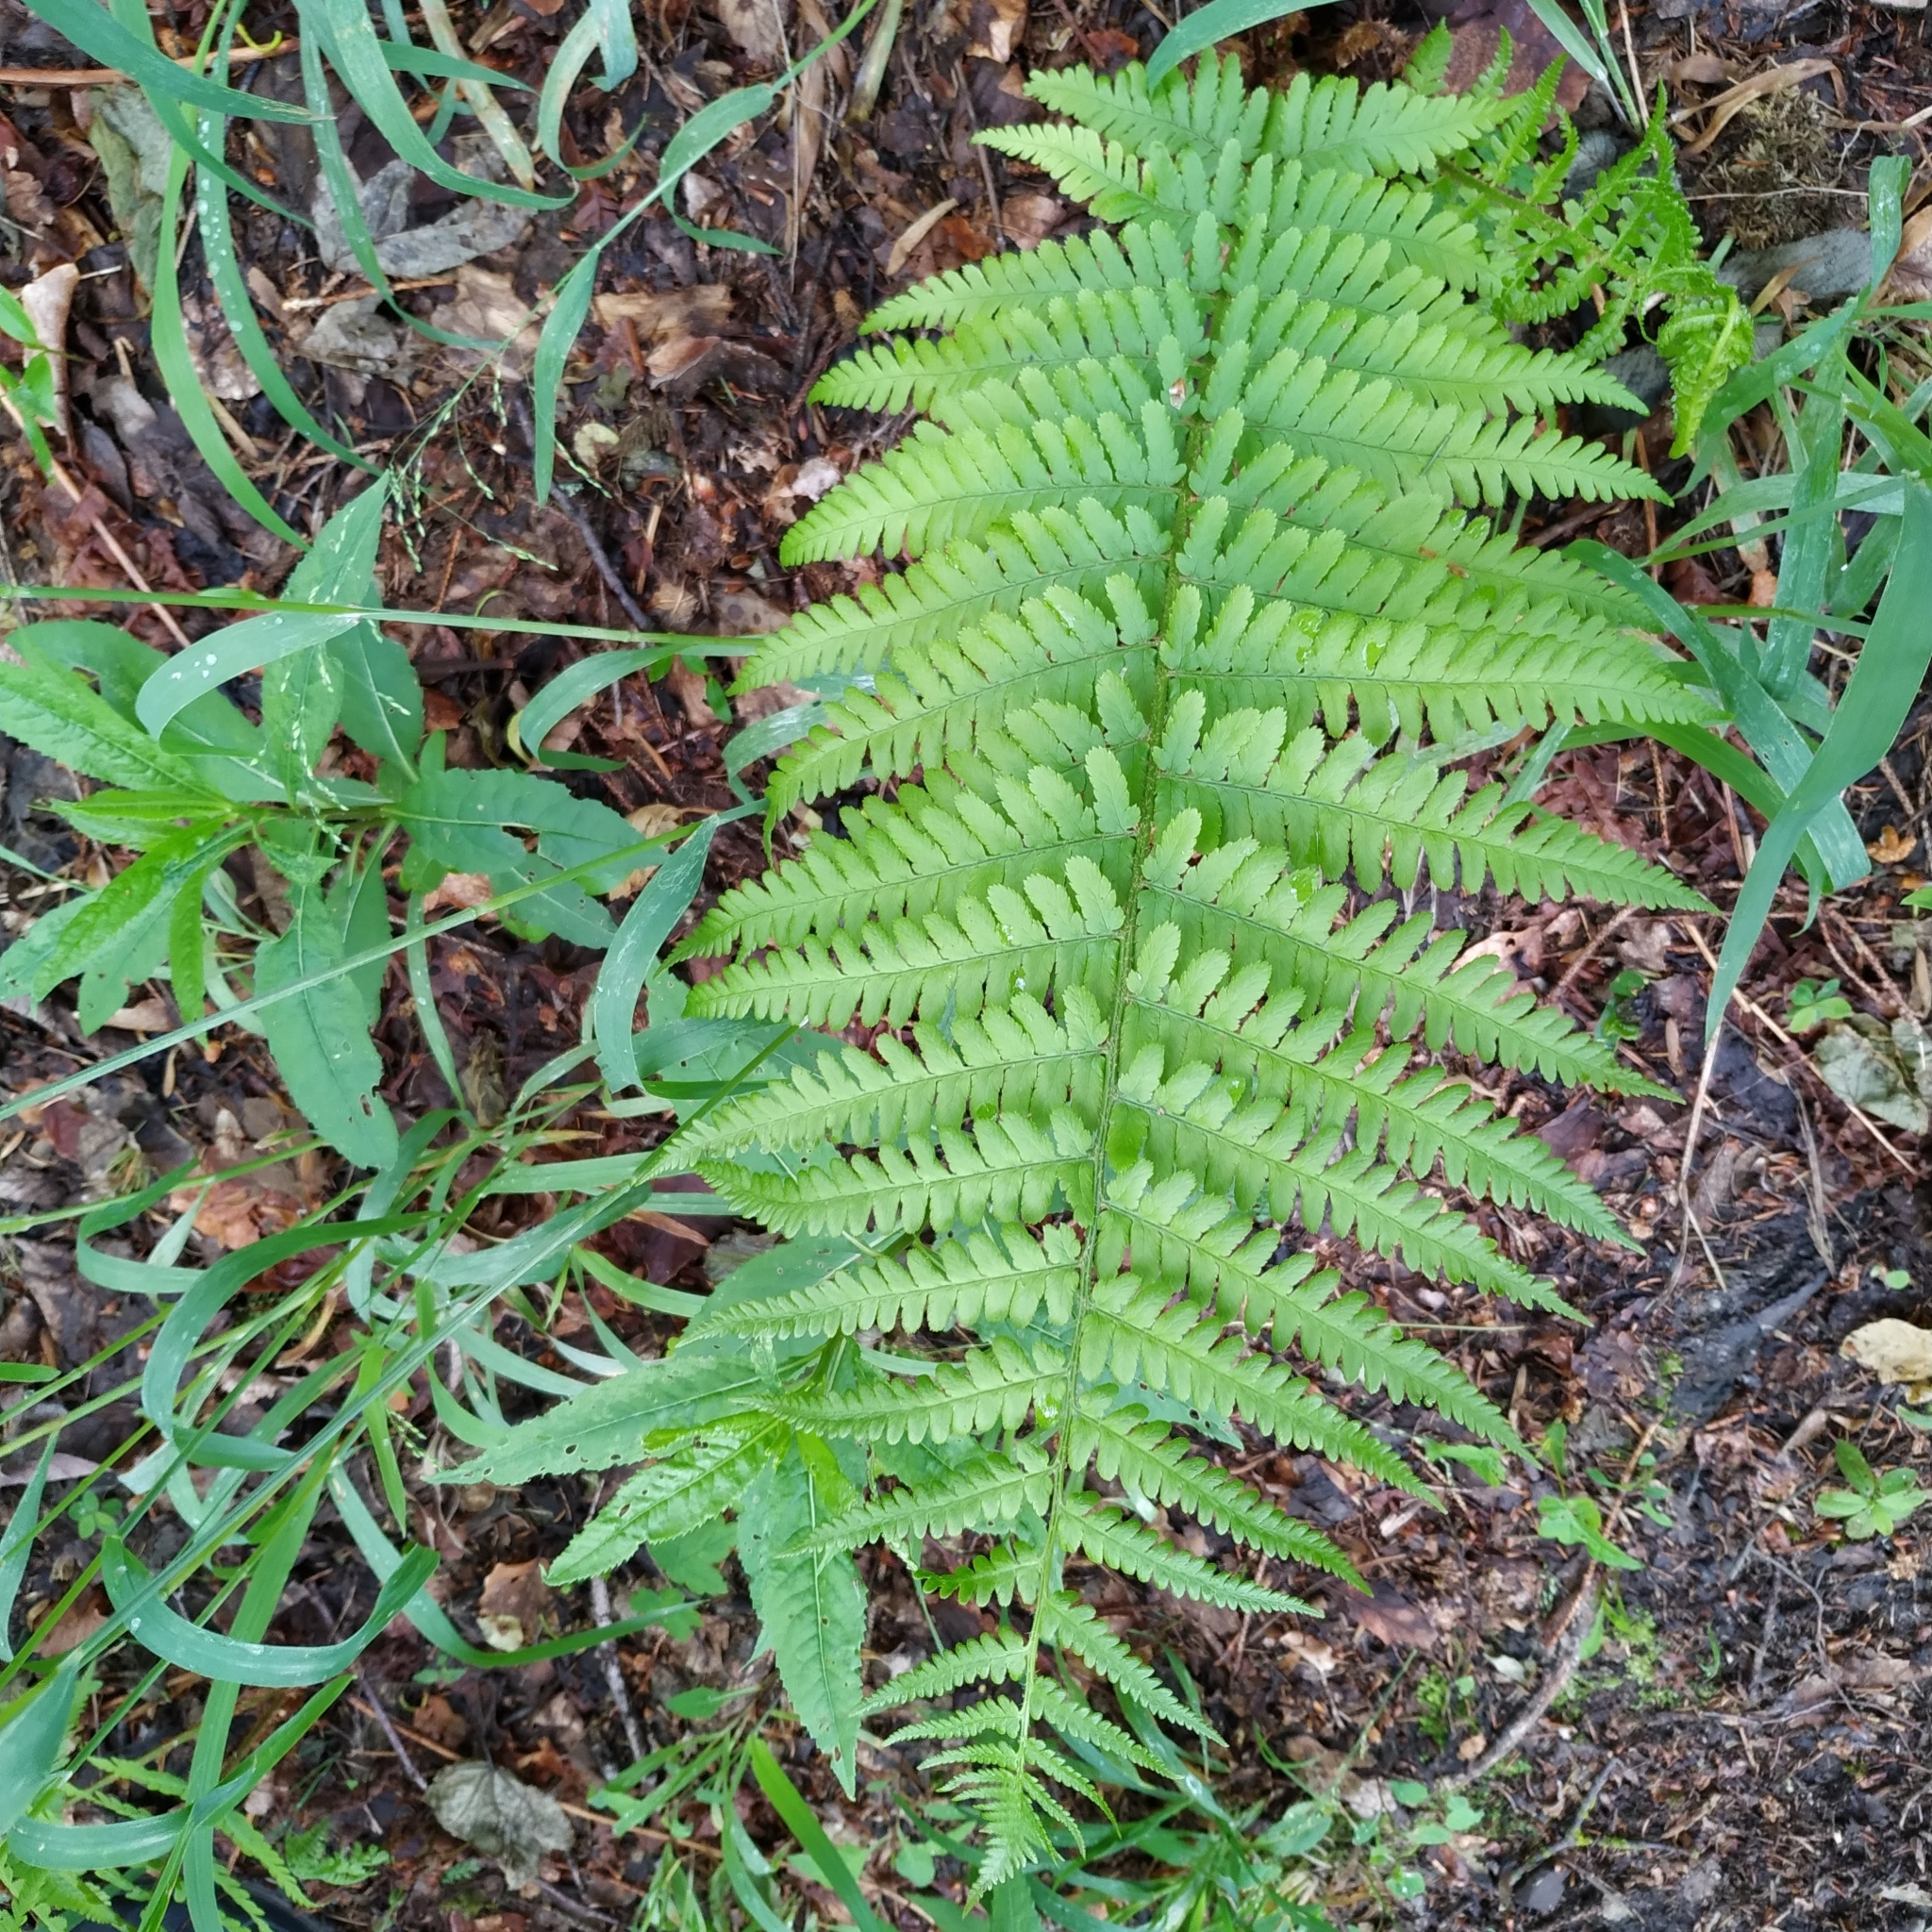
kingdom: Plantae
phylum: Tracheophyta
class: Polypodiopsida
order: Polypodiales
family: Dryopteridaceae
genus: Dryopteris
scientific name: Dryopteris filix-mas
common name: Male fern
